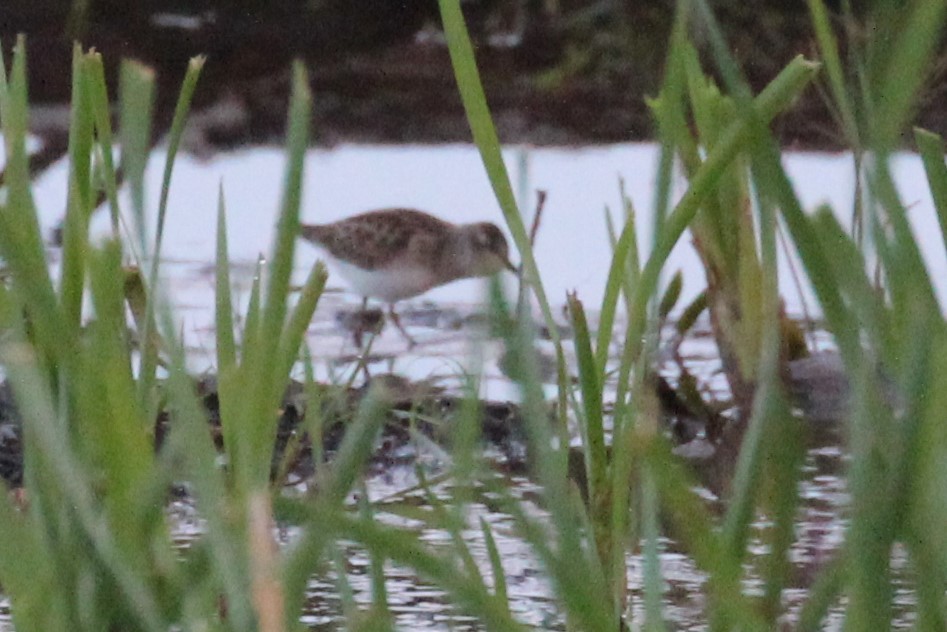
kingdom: Animalia
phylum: Chordata
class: Aves
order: Charadriiformes
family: Scolopacidae
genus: Calidris
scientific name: Calidris minutilla
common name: Least sandpiper
